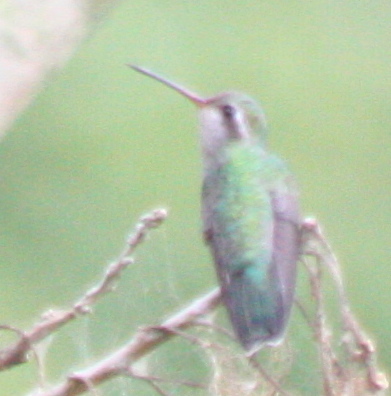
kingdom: Animalia
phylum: Chordata
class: Aves
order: Apodiformes
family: Trochilidae
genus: Cynanthus
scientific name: Cynanthus latirostris
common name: Broad-billed hummingbird
